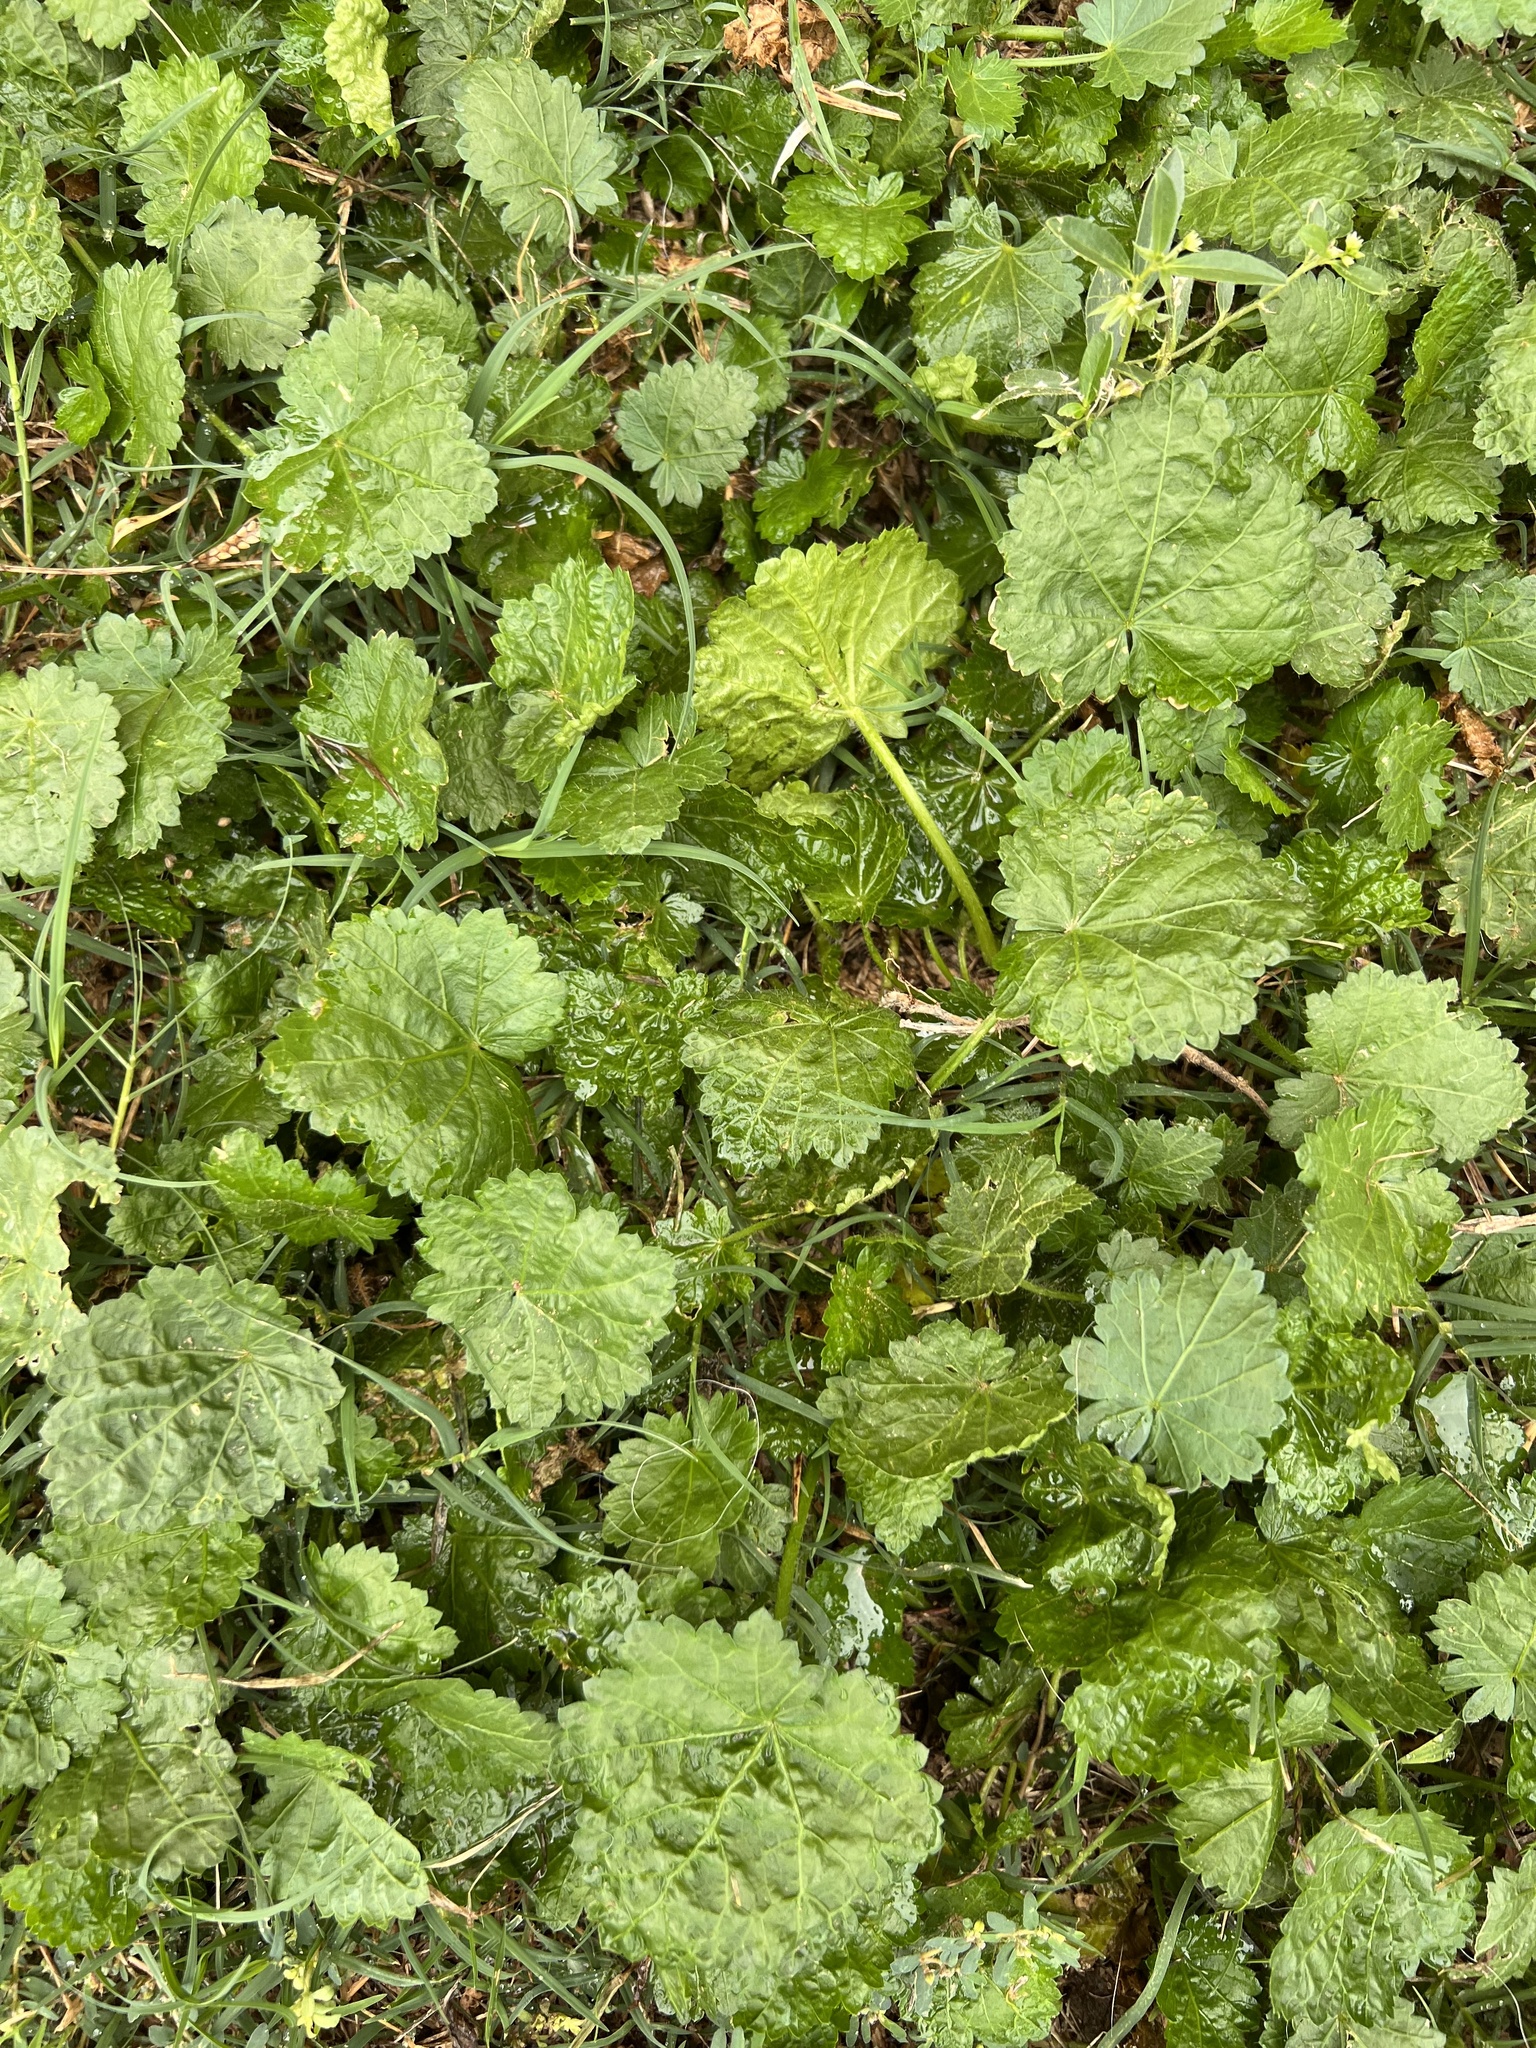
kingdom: Plantae
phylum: Tracheophyta
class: Magnoliopsida
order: Malvales
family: Malvaceae
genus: Modiola
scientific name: Modiola caroliniana
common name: Carolina bristlemallow
